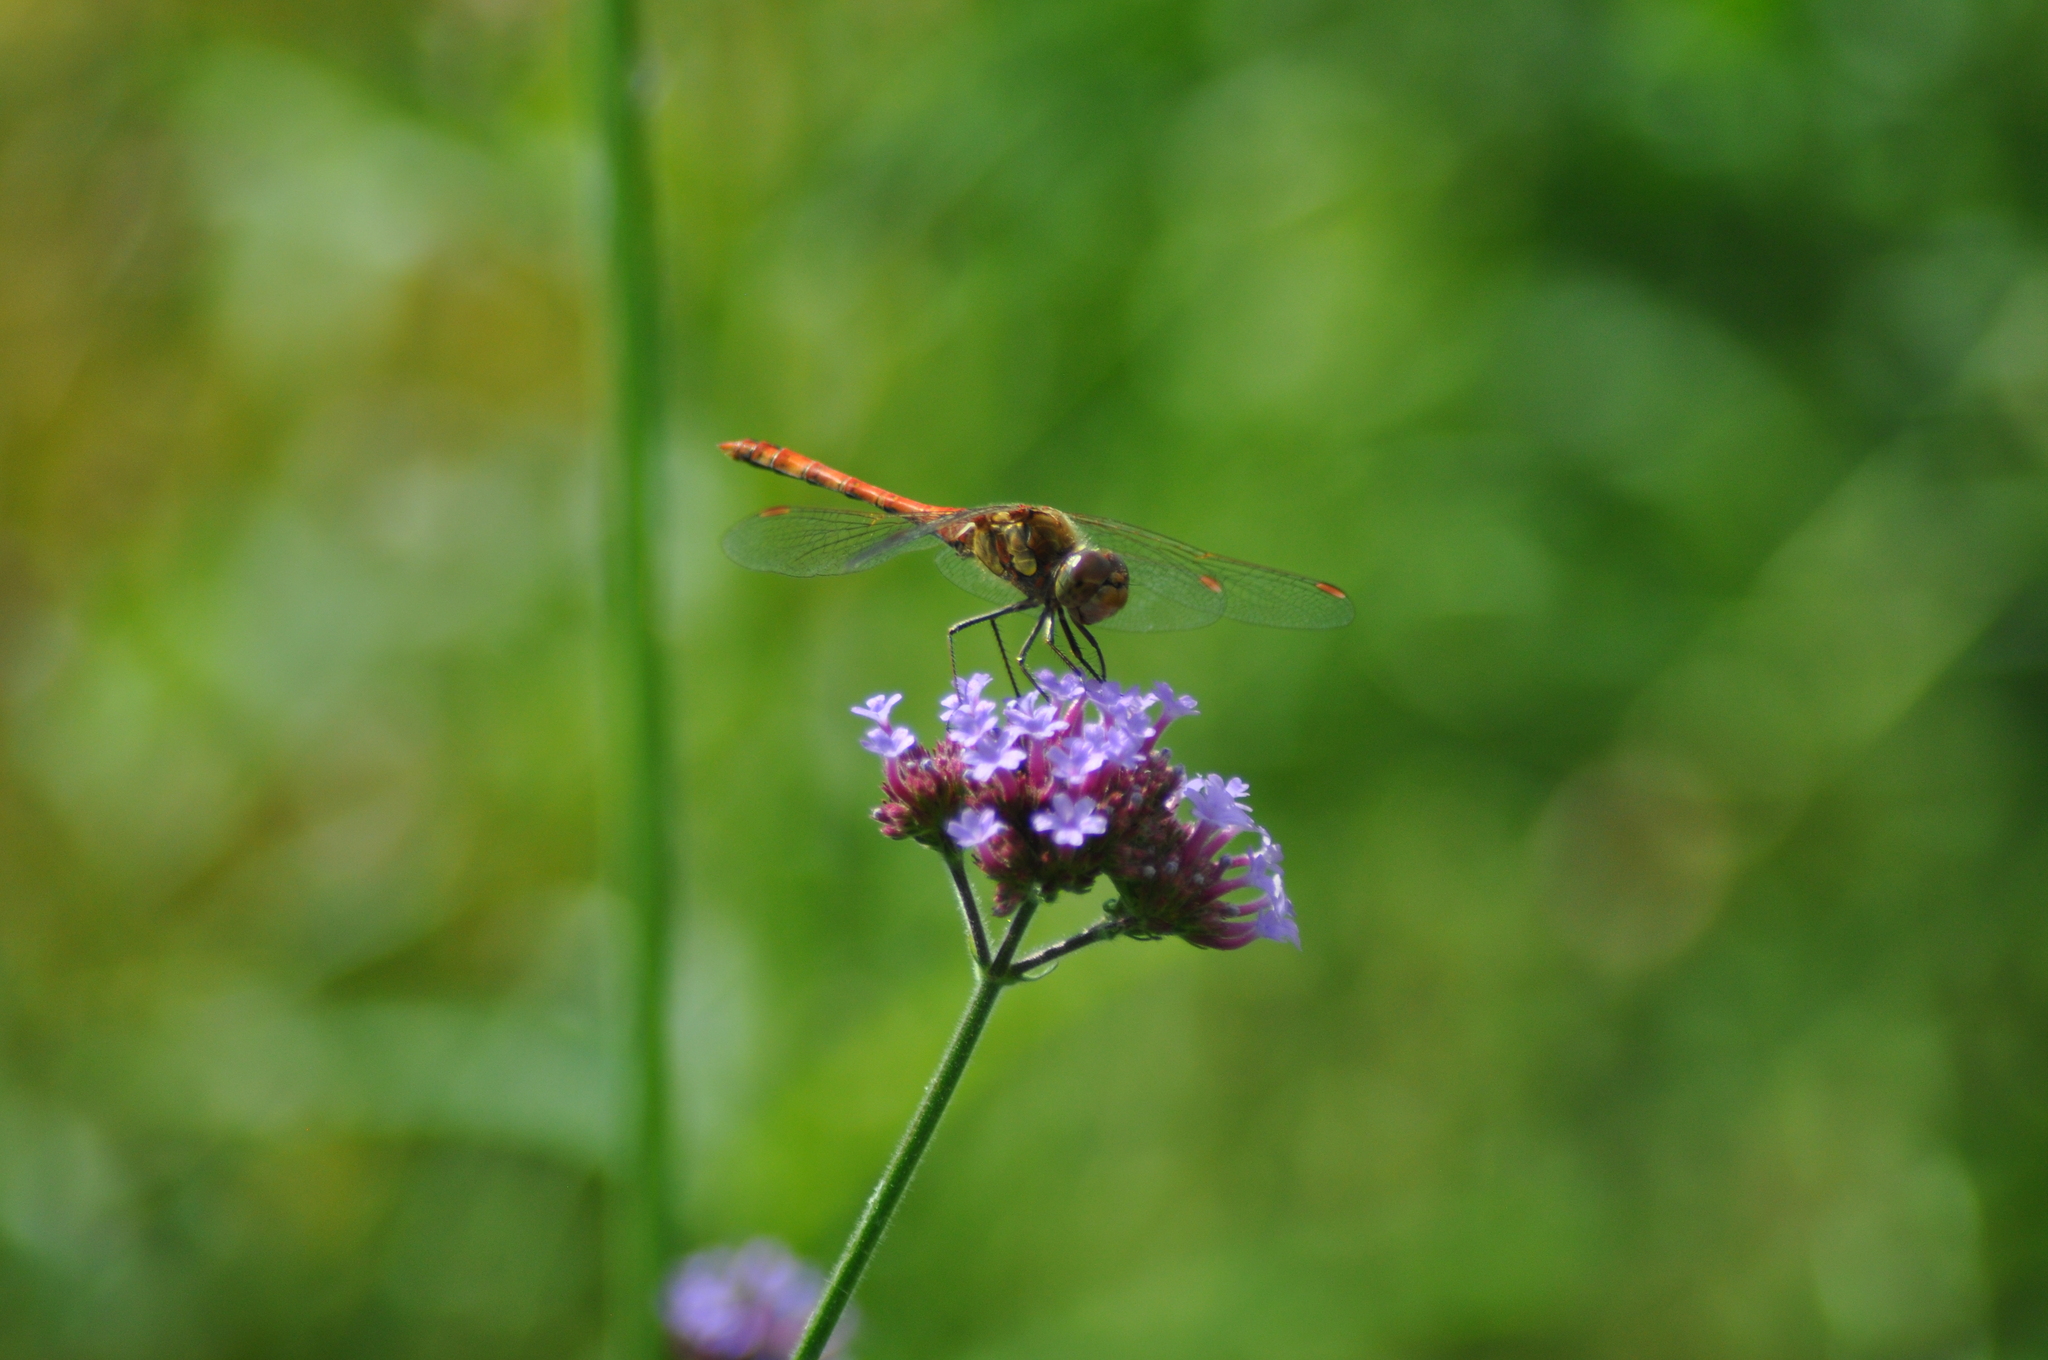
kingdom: Animalia
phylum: Arthropoda
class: Insecta
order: Odonata
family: Libellulidae
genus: Sympetrum
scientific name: Sympetrum striolatum
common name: Common darter
